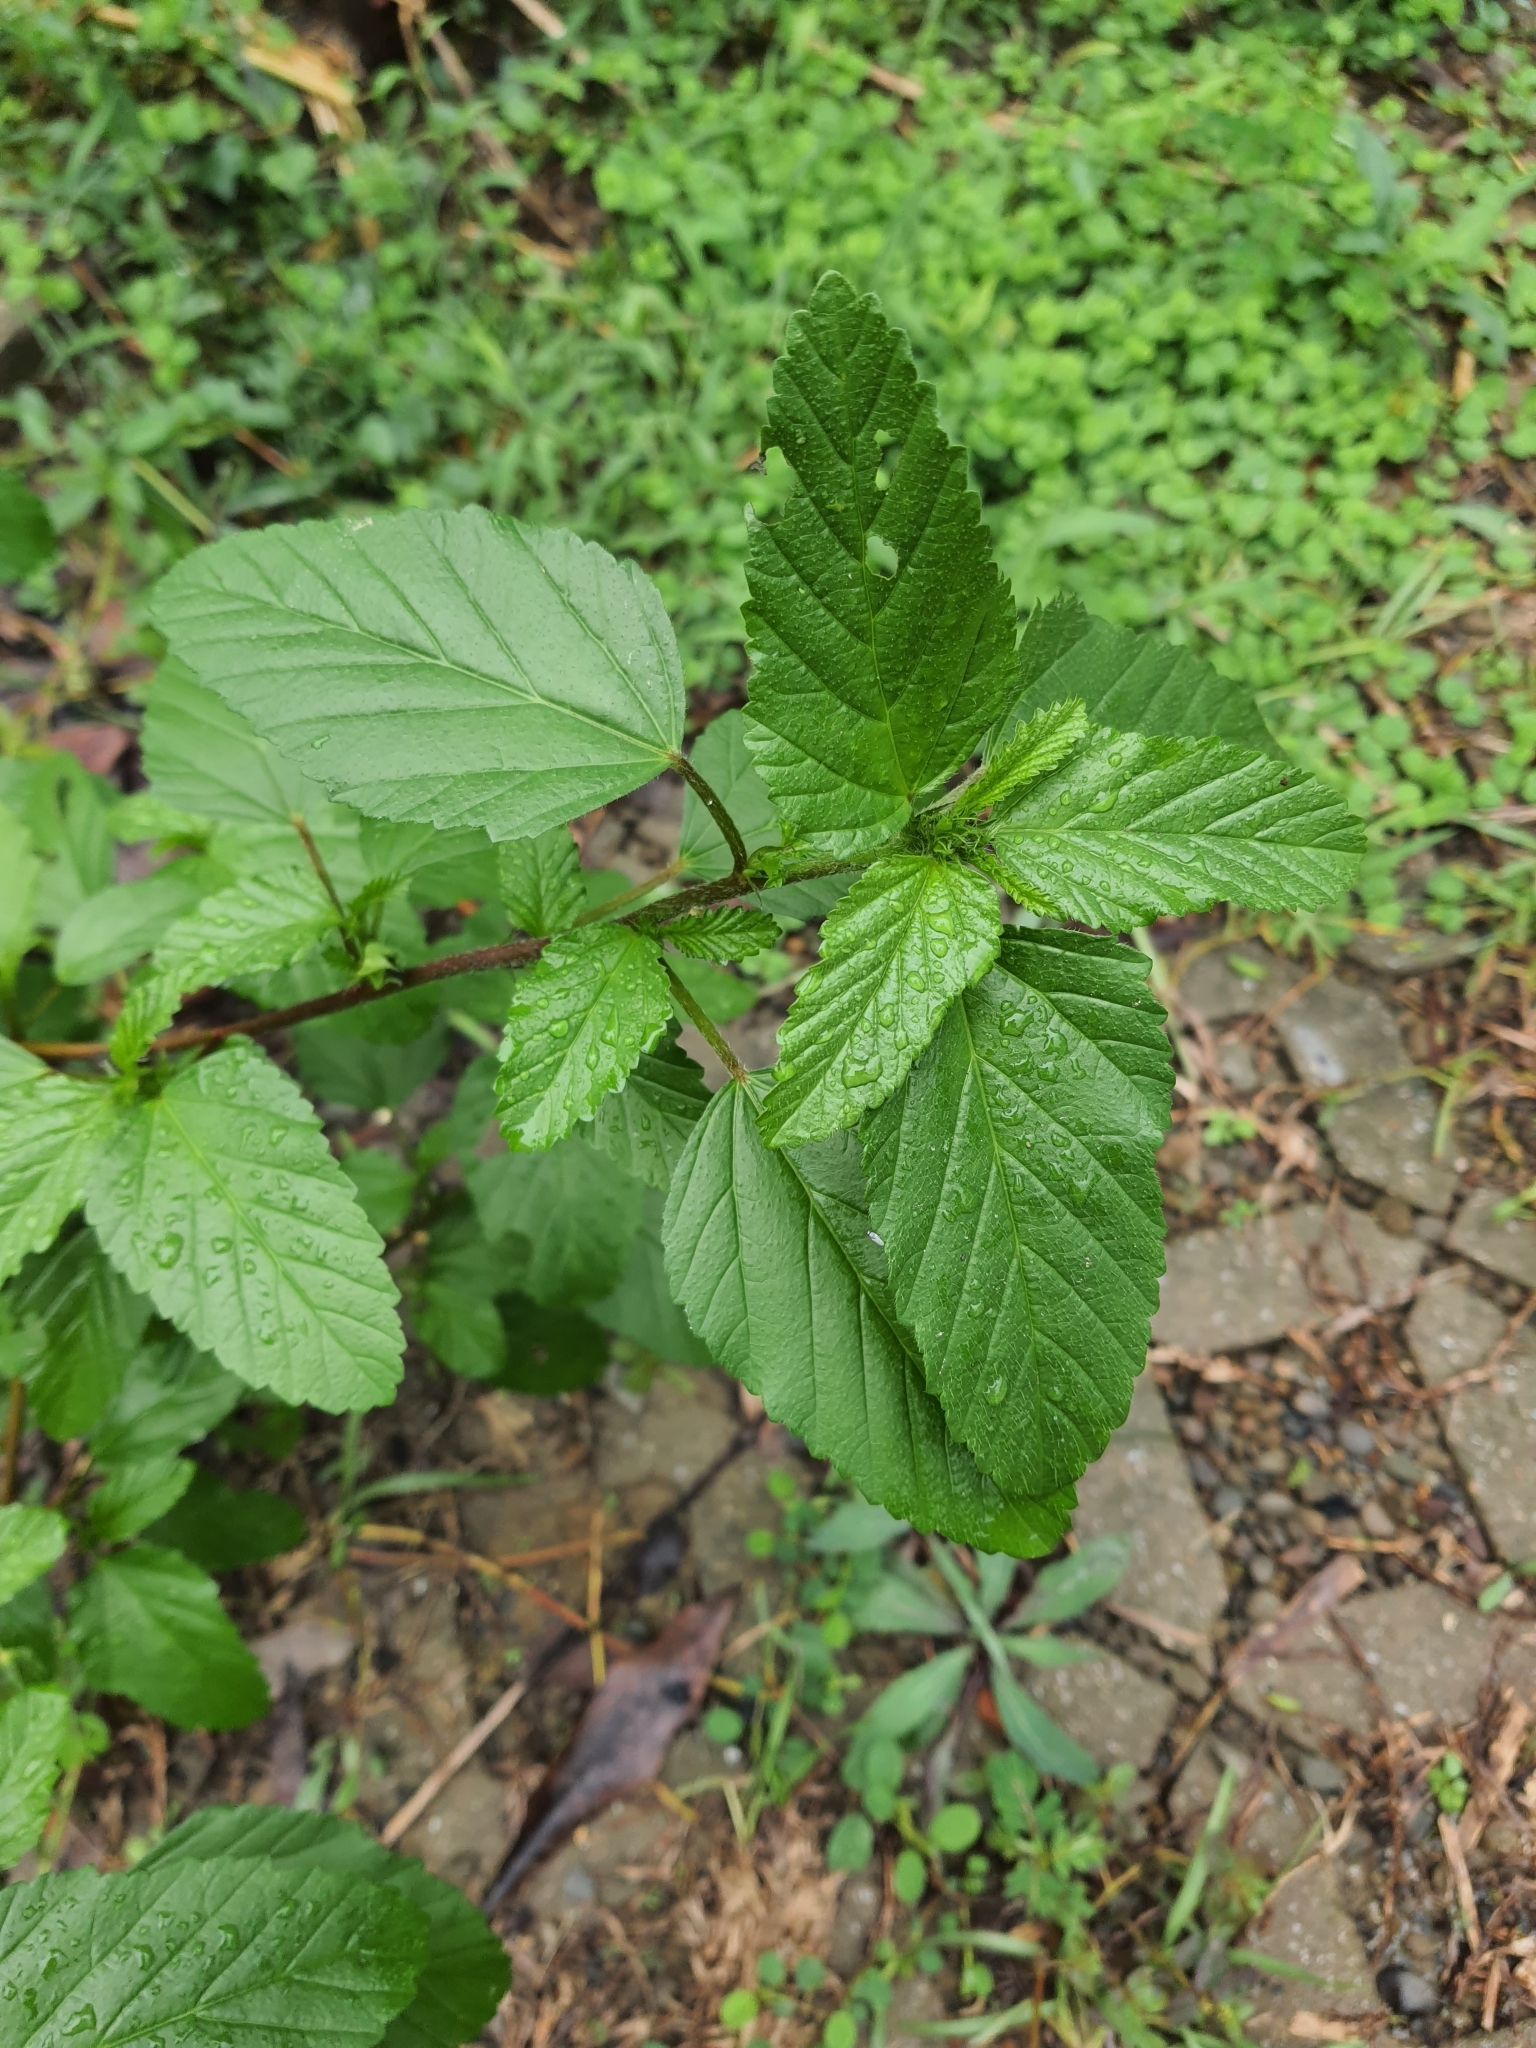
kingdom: Plantae
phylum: Tracheophyta
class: Magnoliopsida
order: Malvales
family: Malvaceae
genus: Malvastrum
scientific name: Malvastrum coromandelianum
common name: Threelobe false mallow
